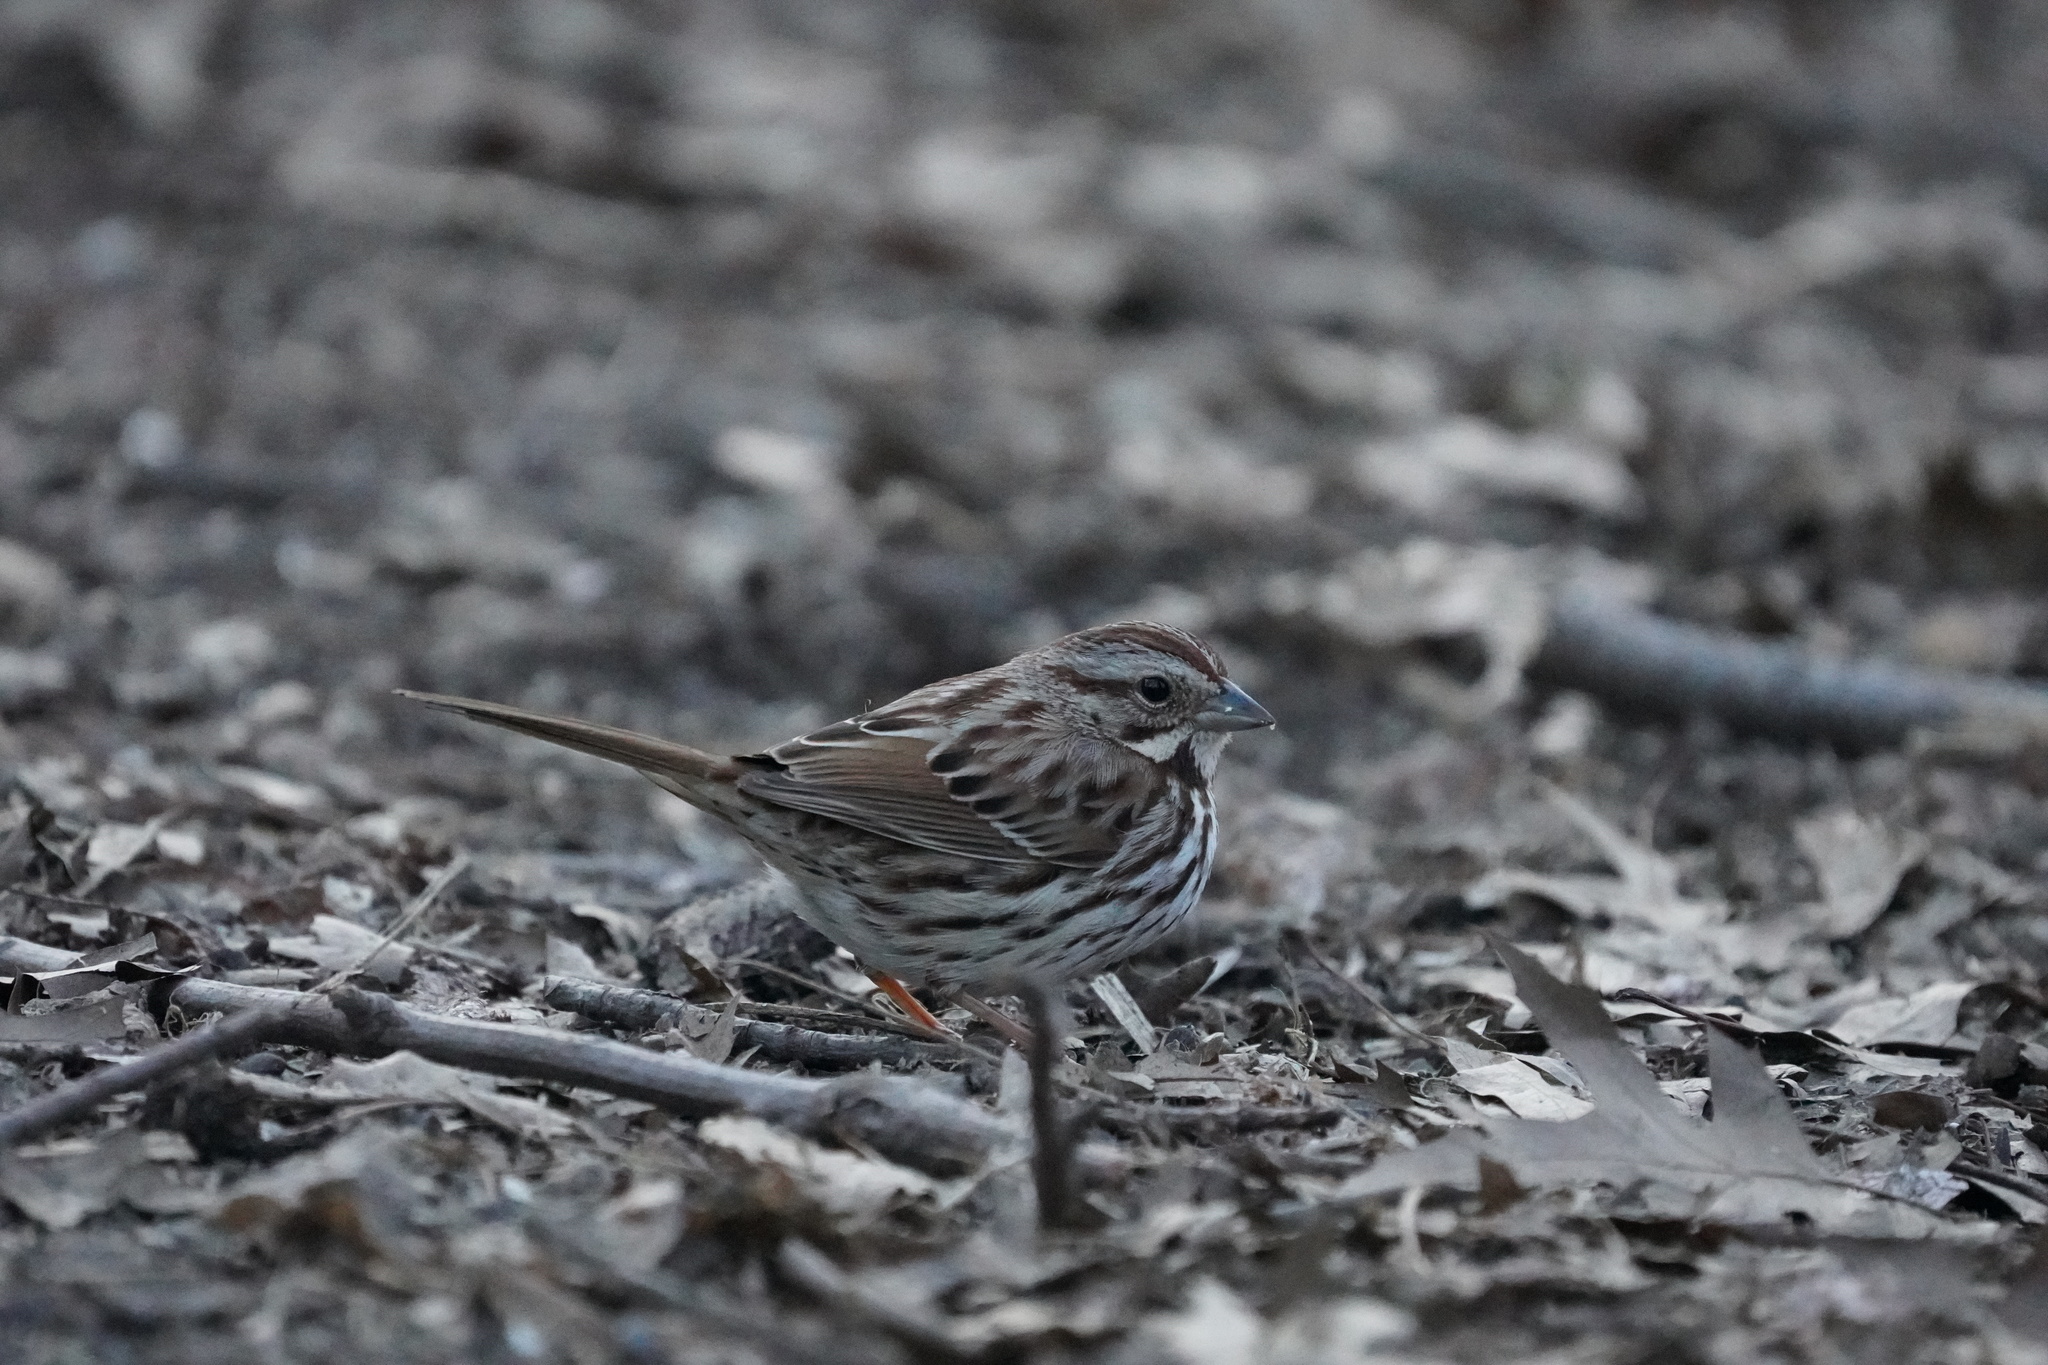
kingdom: Animalia
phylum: Chordata
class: Aves
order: Passeriformes
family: Passerellidae
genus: Melospiza
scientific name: Melospiza melodia
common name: Song sparrow
